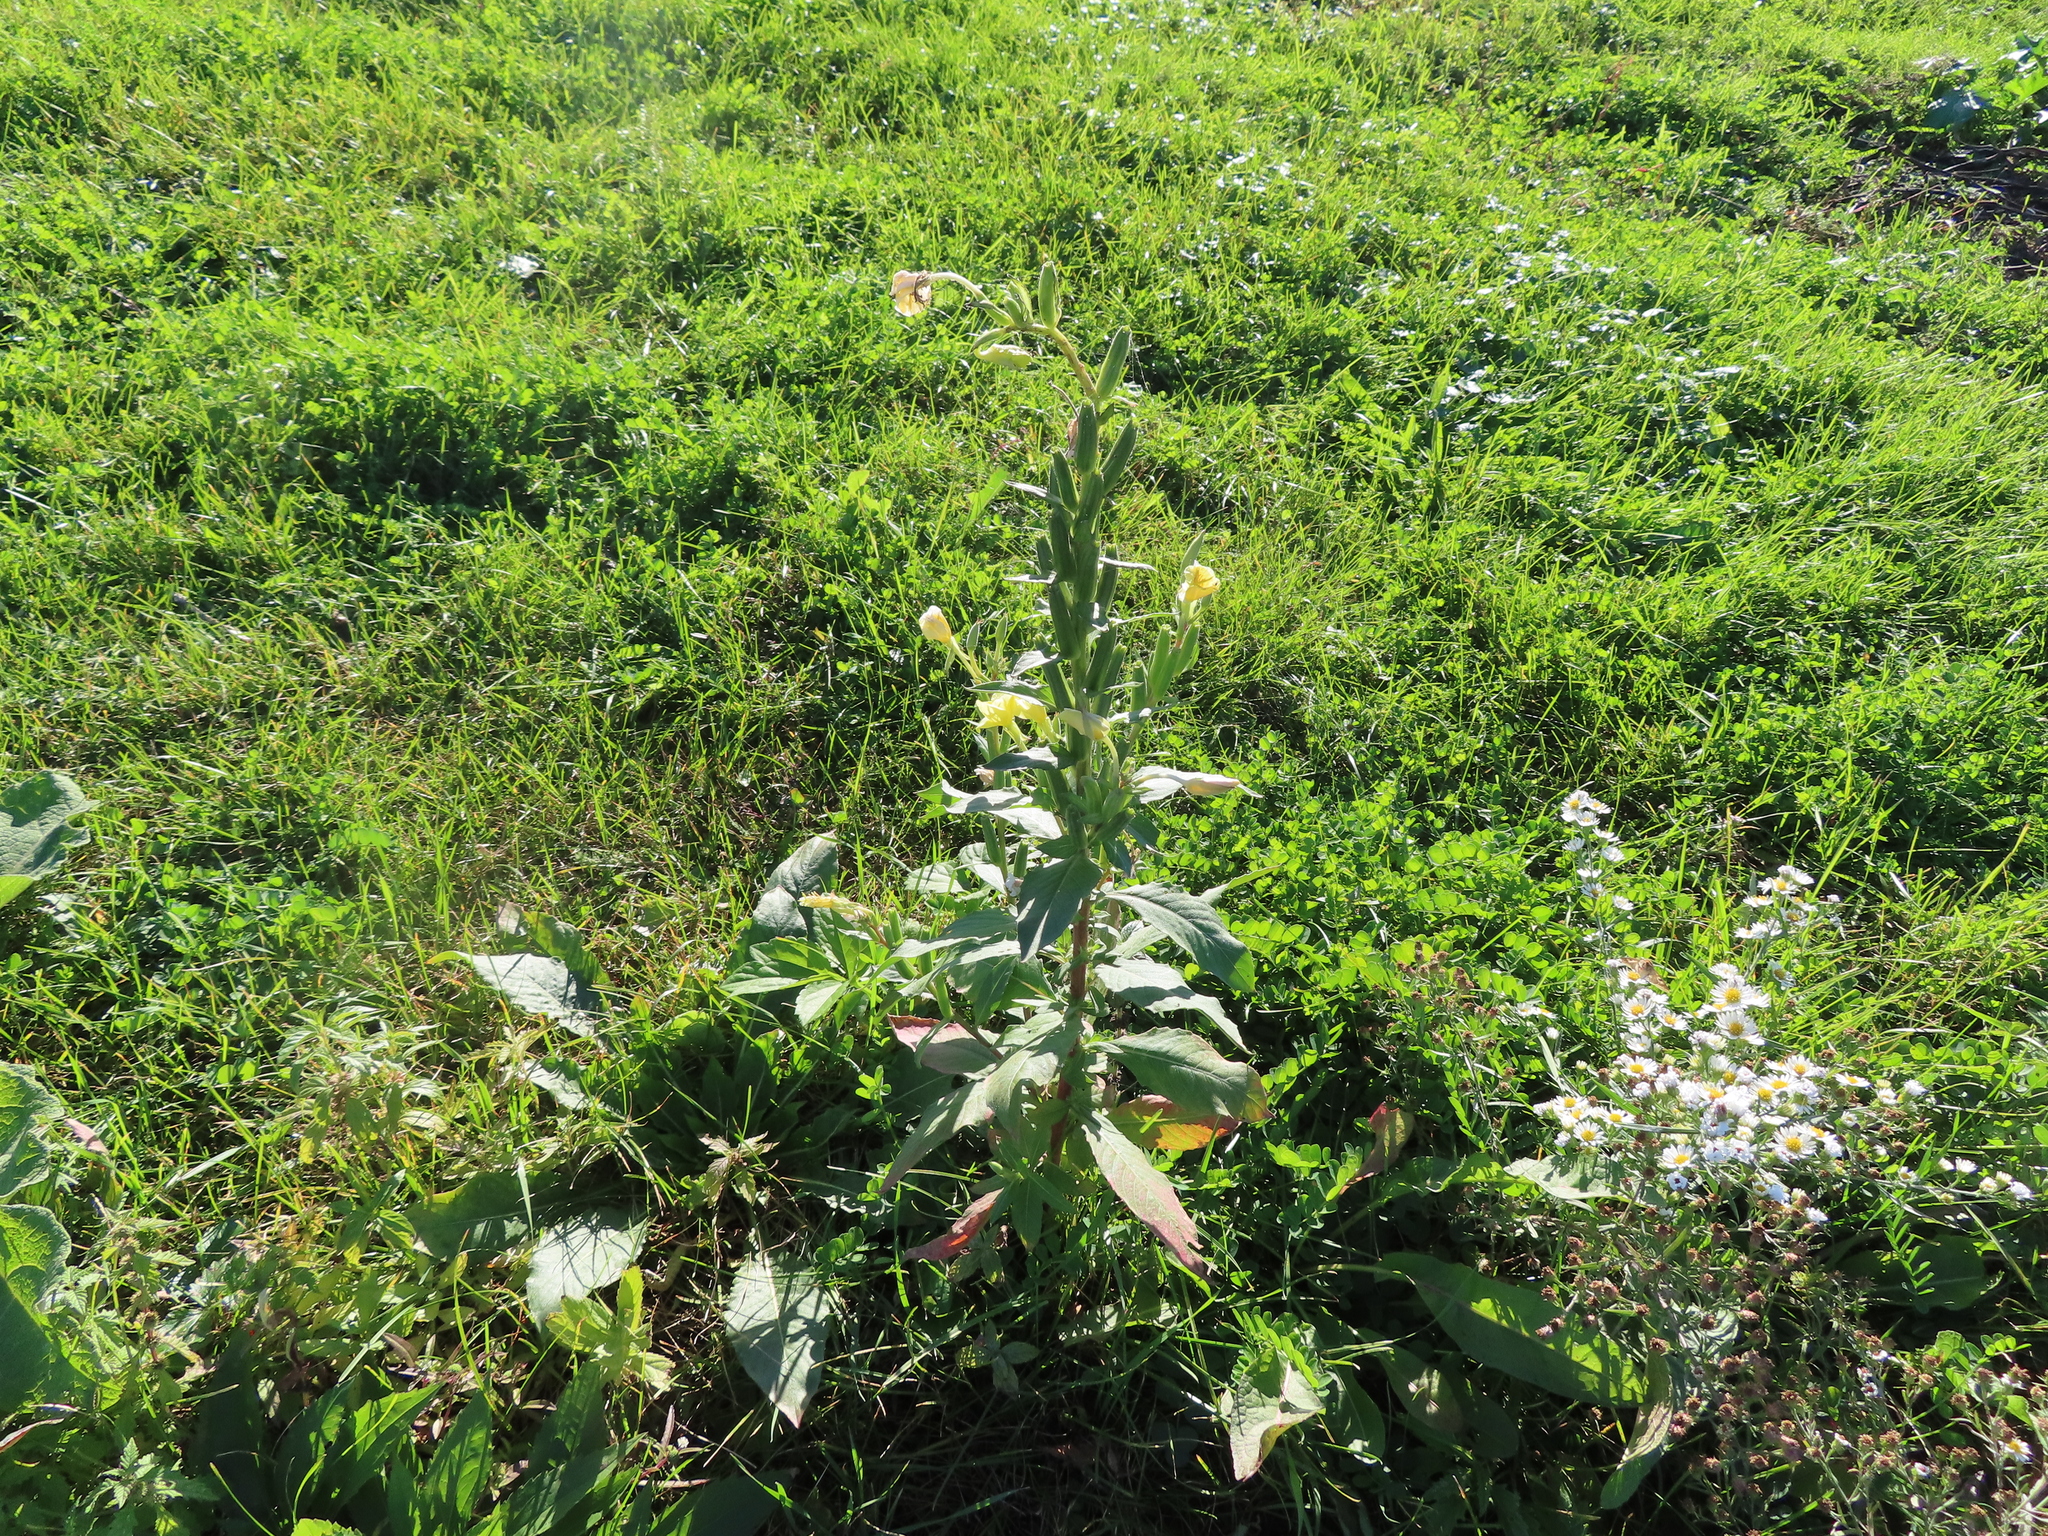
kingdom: Plantae
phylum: Tracheophyta
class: Magnoliopsida
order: Myrtales
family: Onagraceae
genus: Oenothera
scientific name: Oenothera biennis
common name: Common evening-primrose
